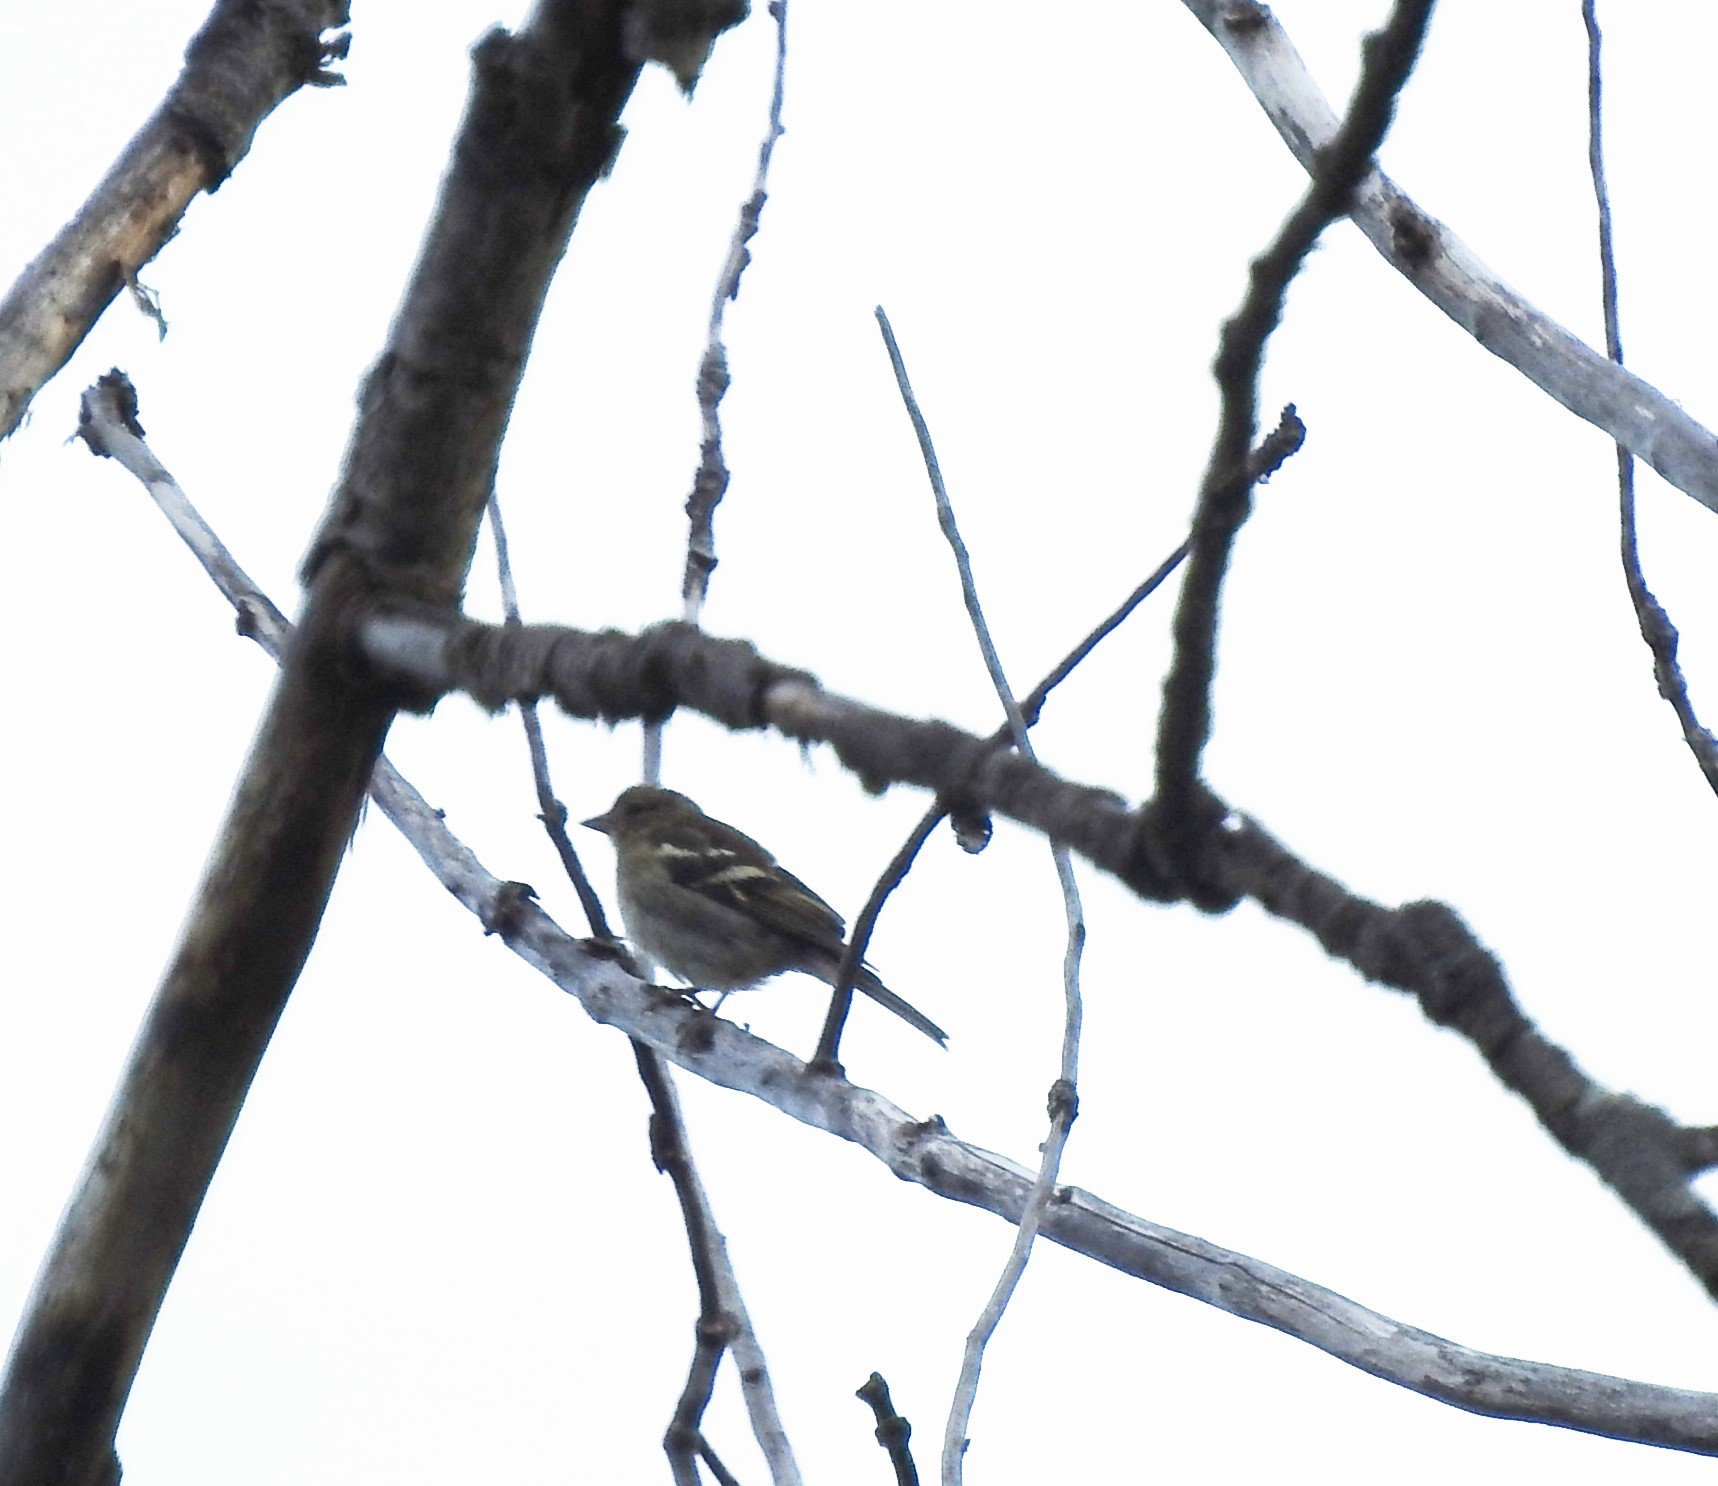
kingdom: Animalia
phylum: Chordata
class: Aves
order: Passeriformes
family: Fringillidae
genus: Fringilla
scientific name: Fringilla coelebs
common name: Common chaffinch
